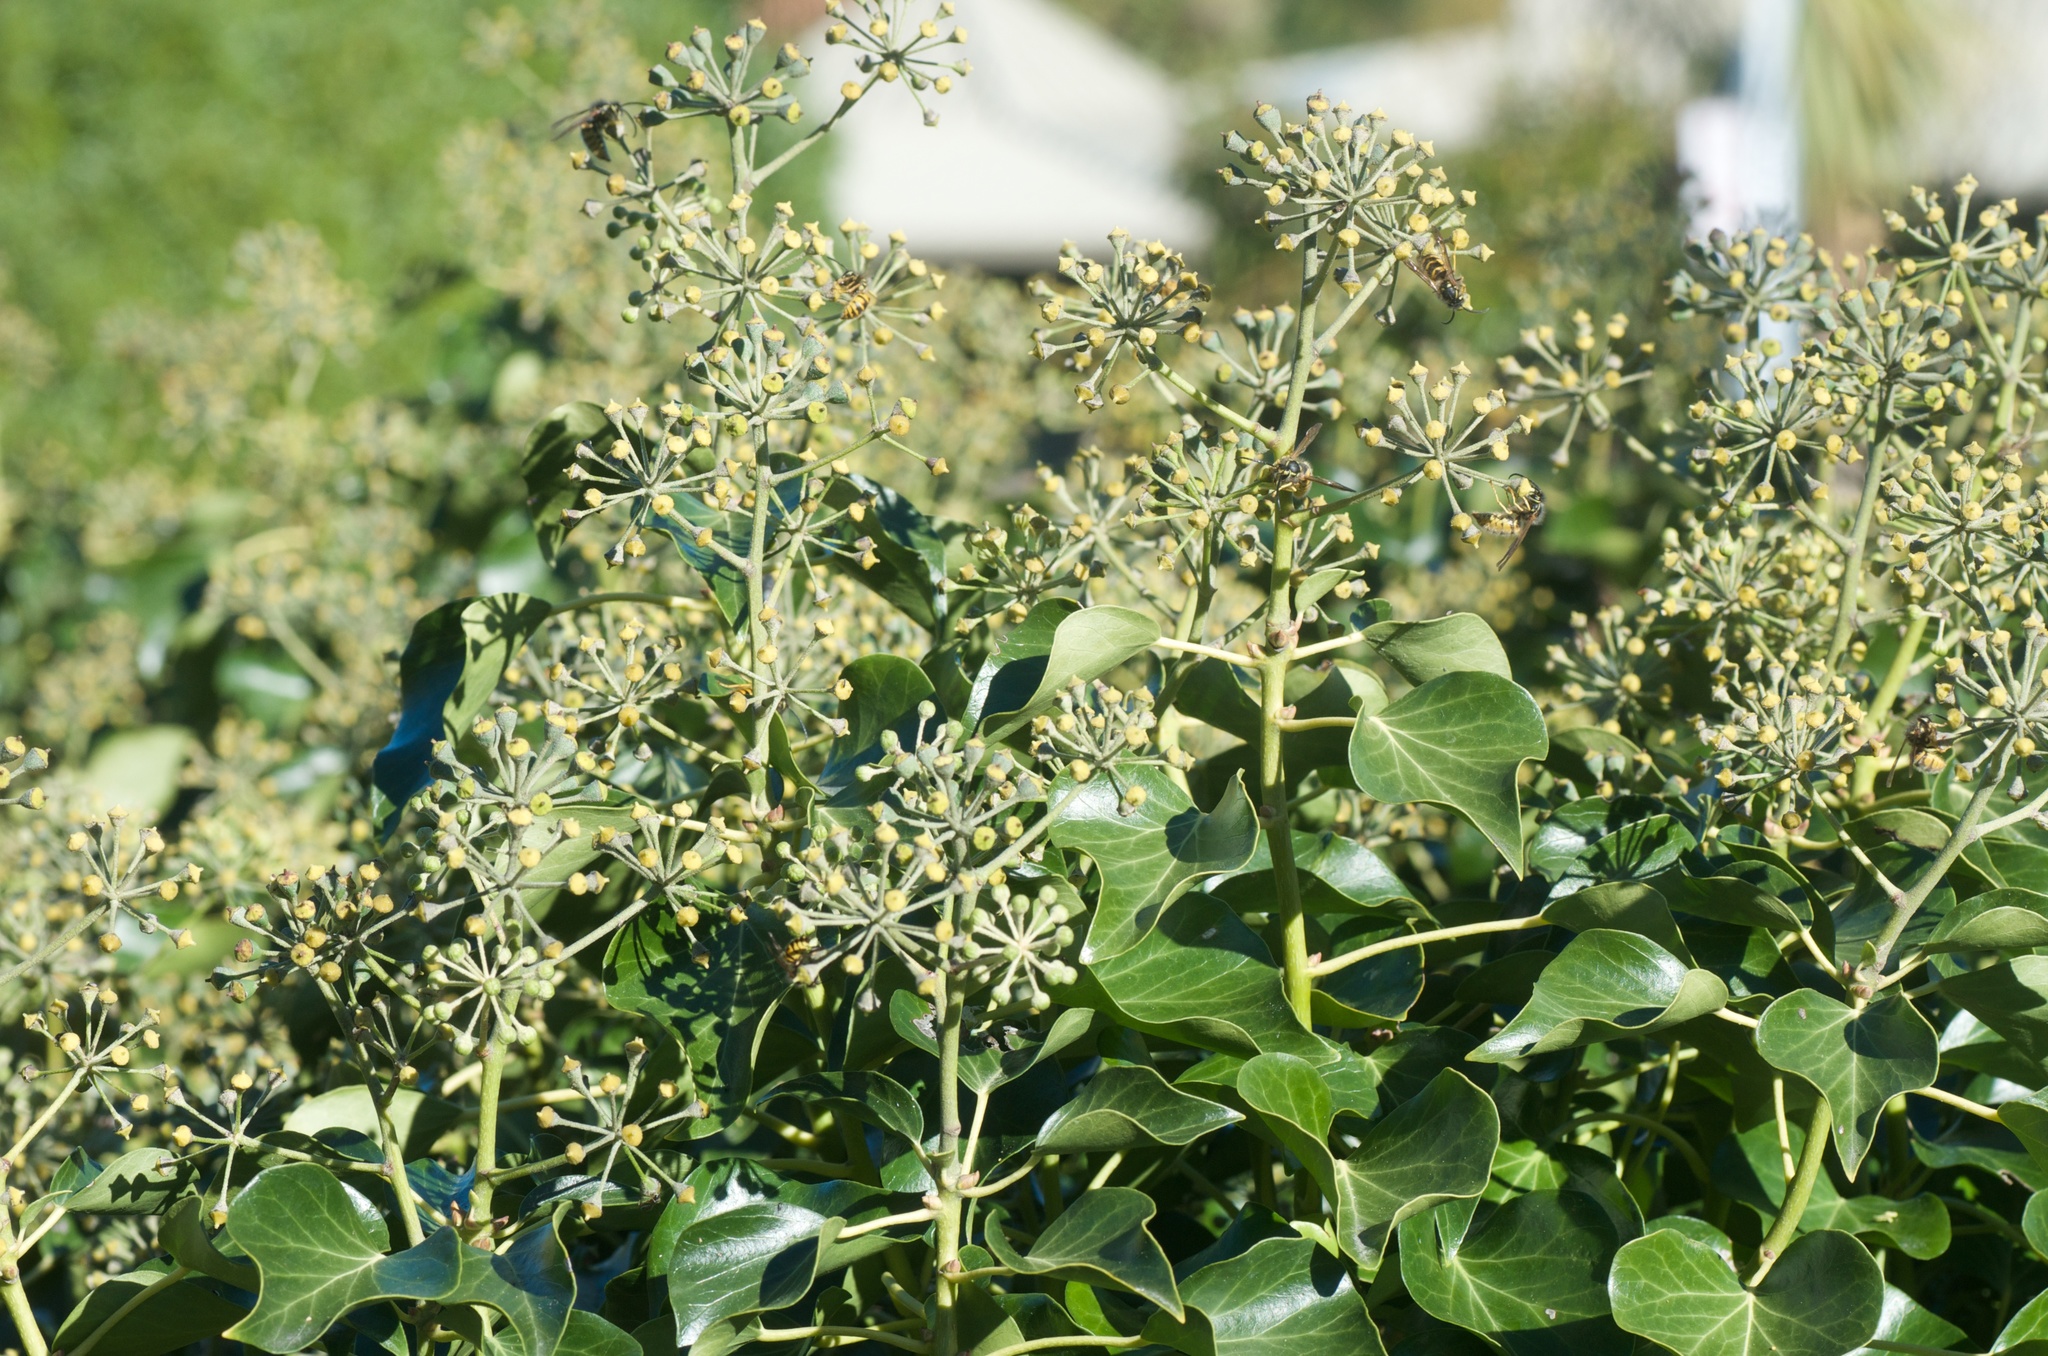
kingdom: Animalia
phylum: Arthropoda
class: Insecta
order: Hymenoptera
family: Vespidae
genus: Vespula
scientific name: Vespula vulgaris
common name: Common wasp
